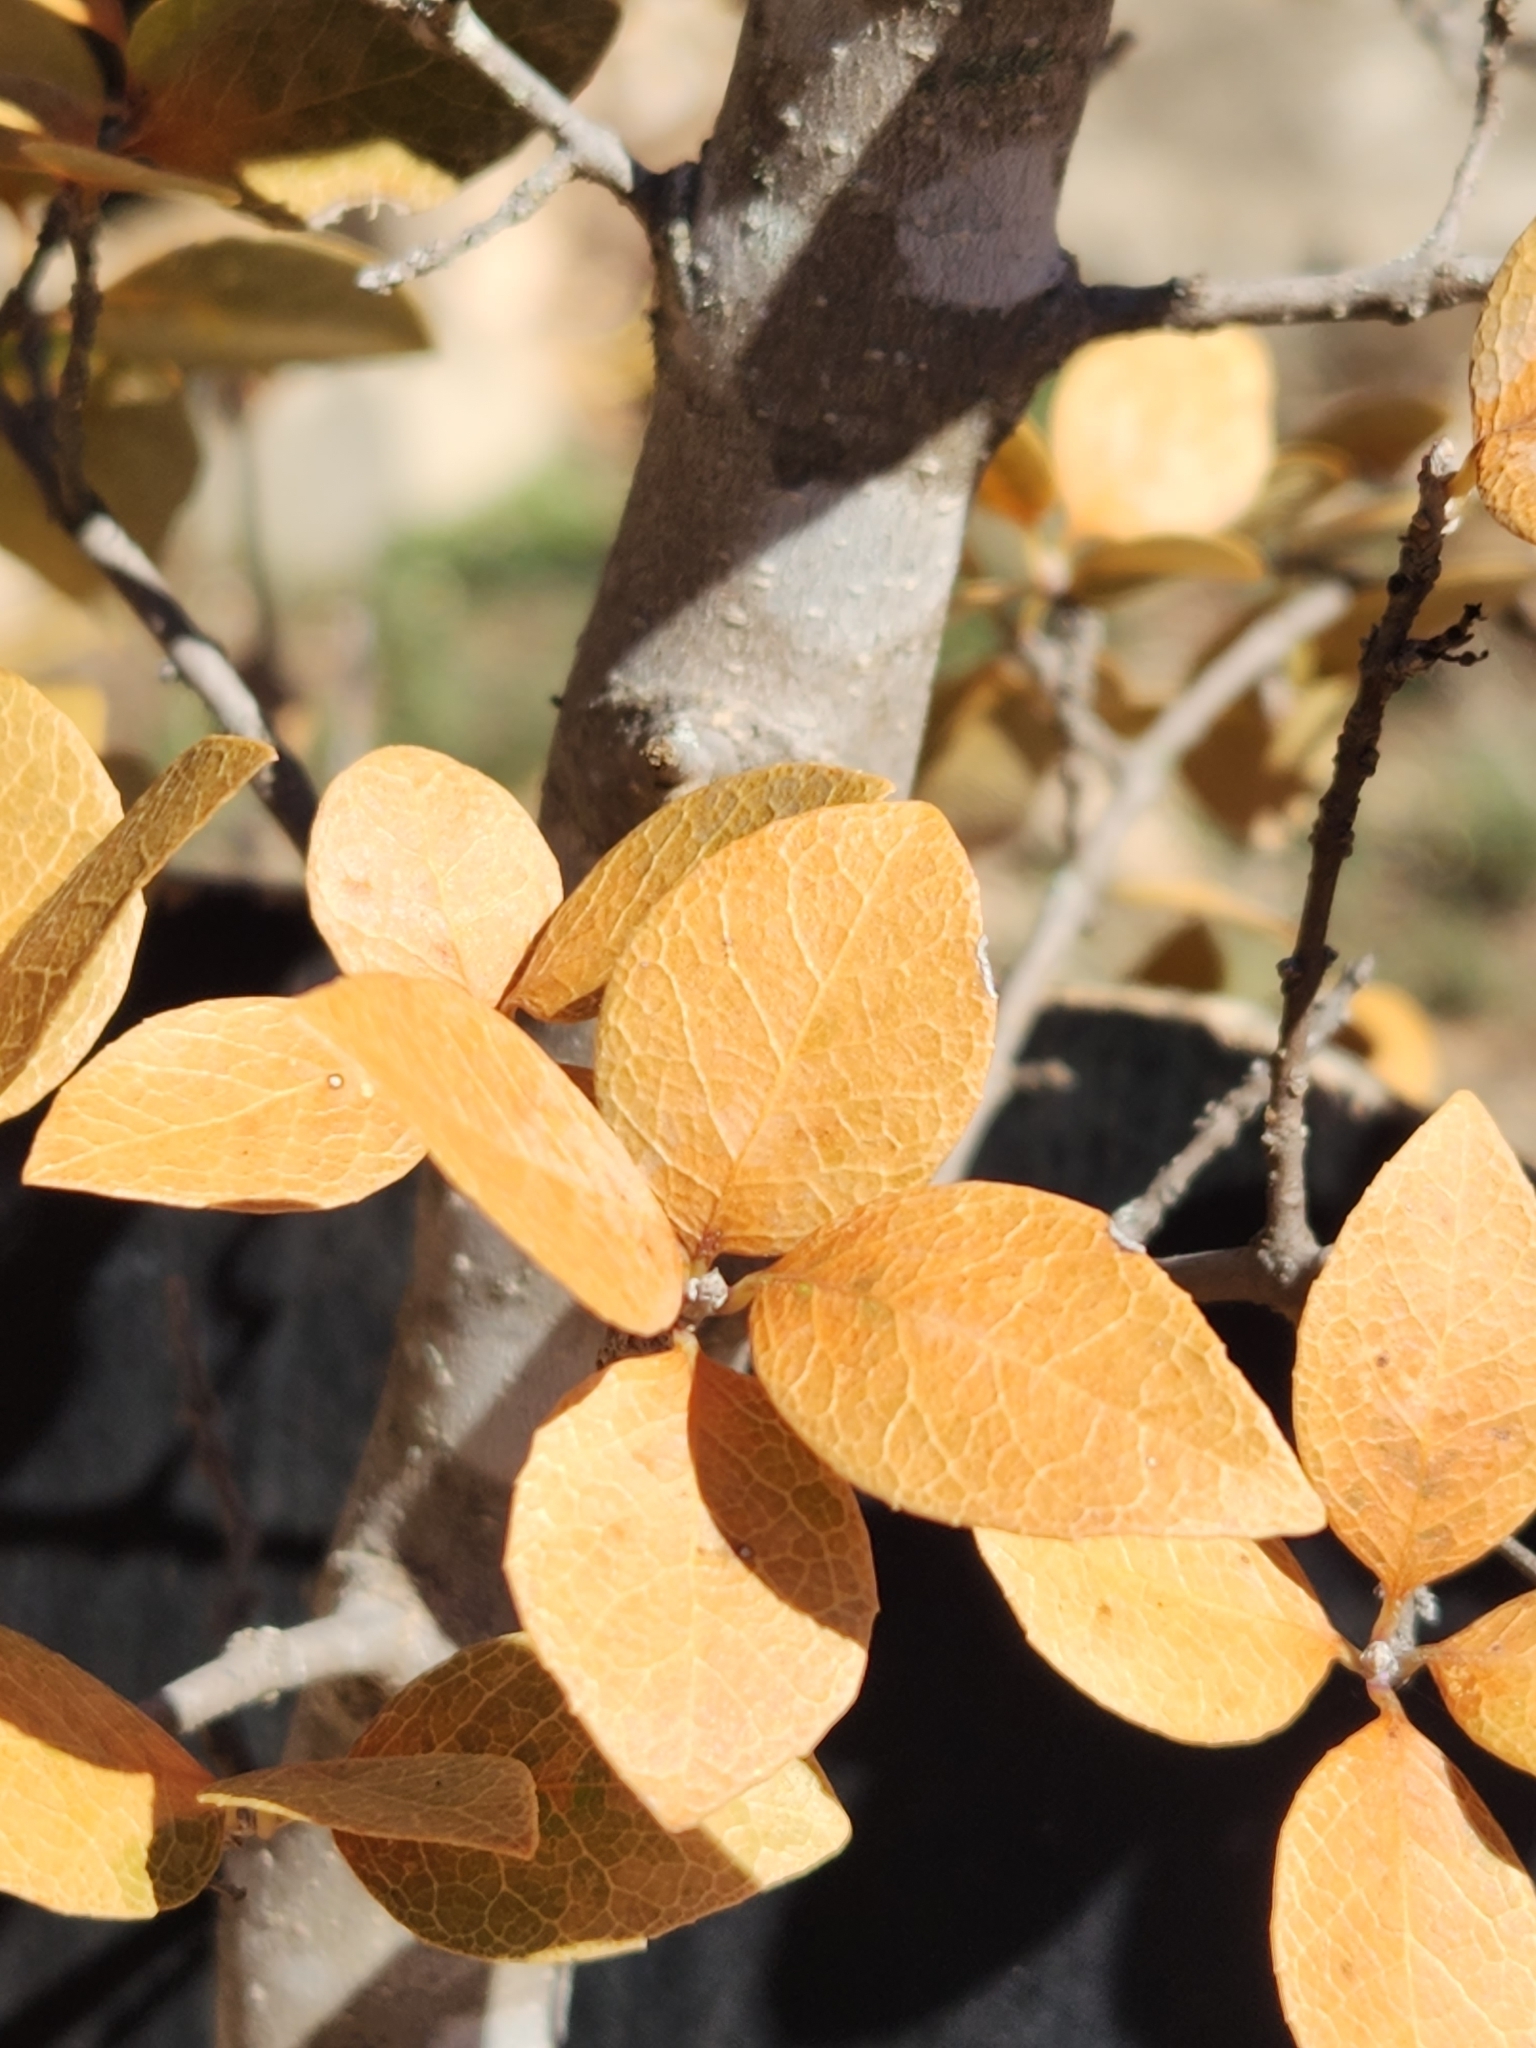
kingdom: Plantae
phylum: Tracheophyta
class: Magnoliopsida
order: Lamiales
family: Oleaceae
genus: Forestiera
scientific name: Forestiera reticulata
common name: Netleaf swamp-privet
